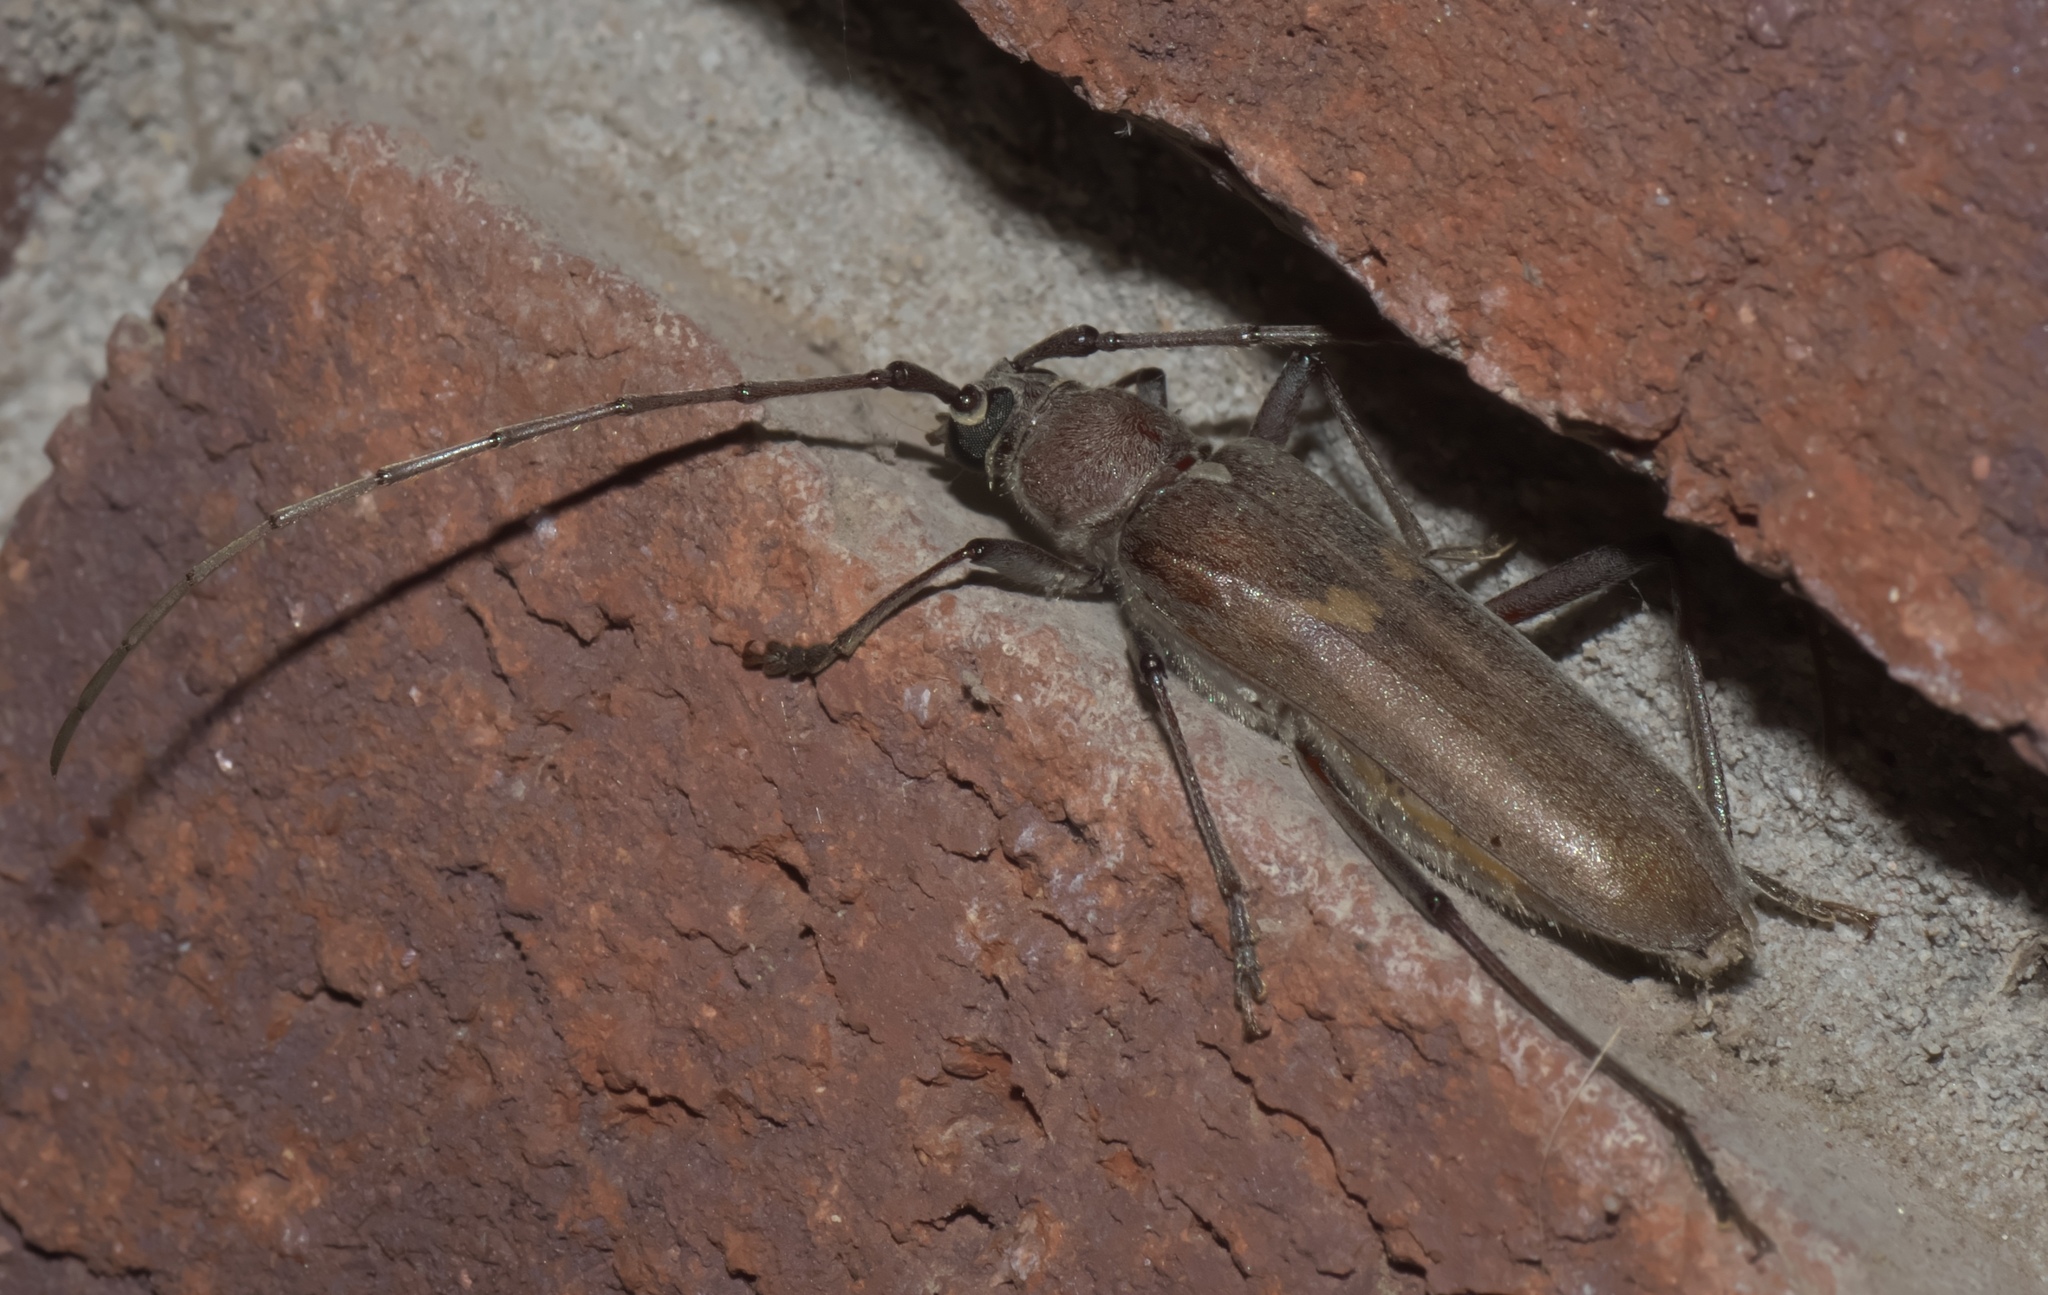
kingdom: Animalia
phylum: Arthropoda
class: Insecta
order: Coleoptera
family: Cerambycidae
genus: Knulliana
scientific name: Knulliana cincta
